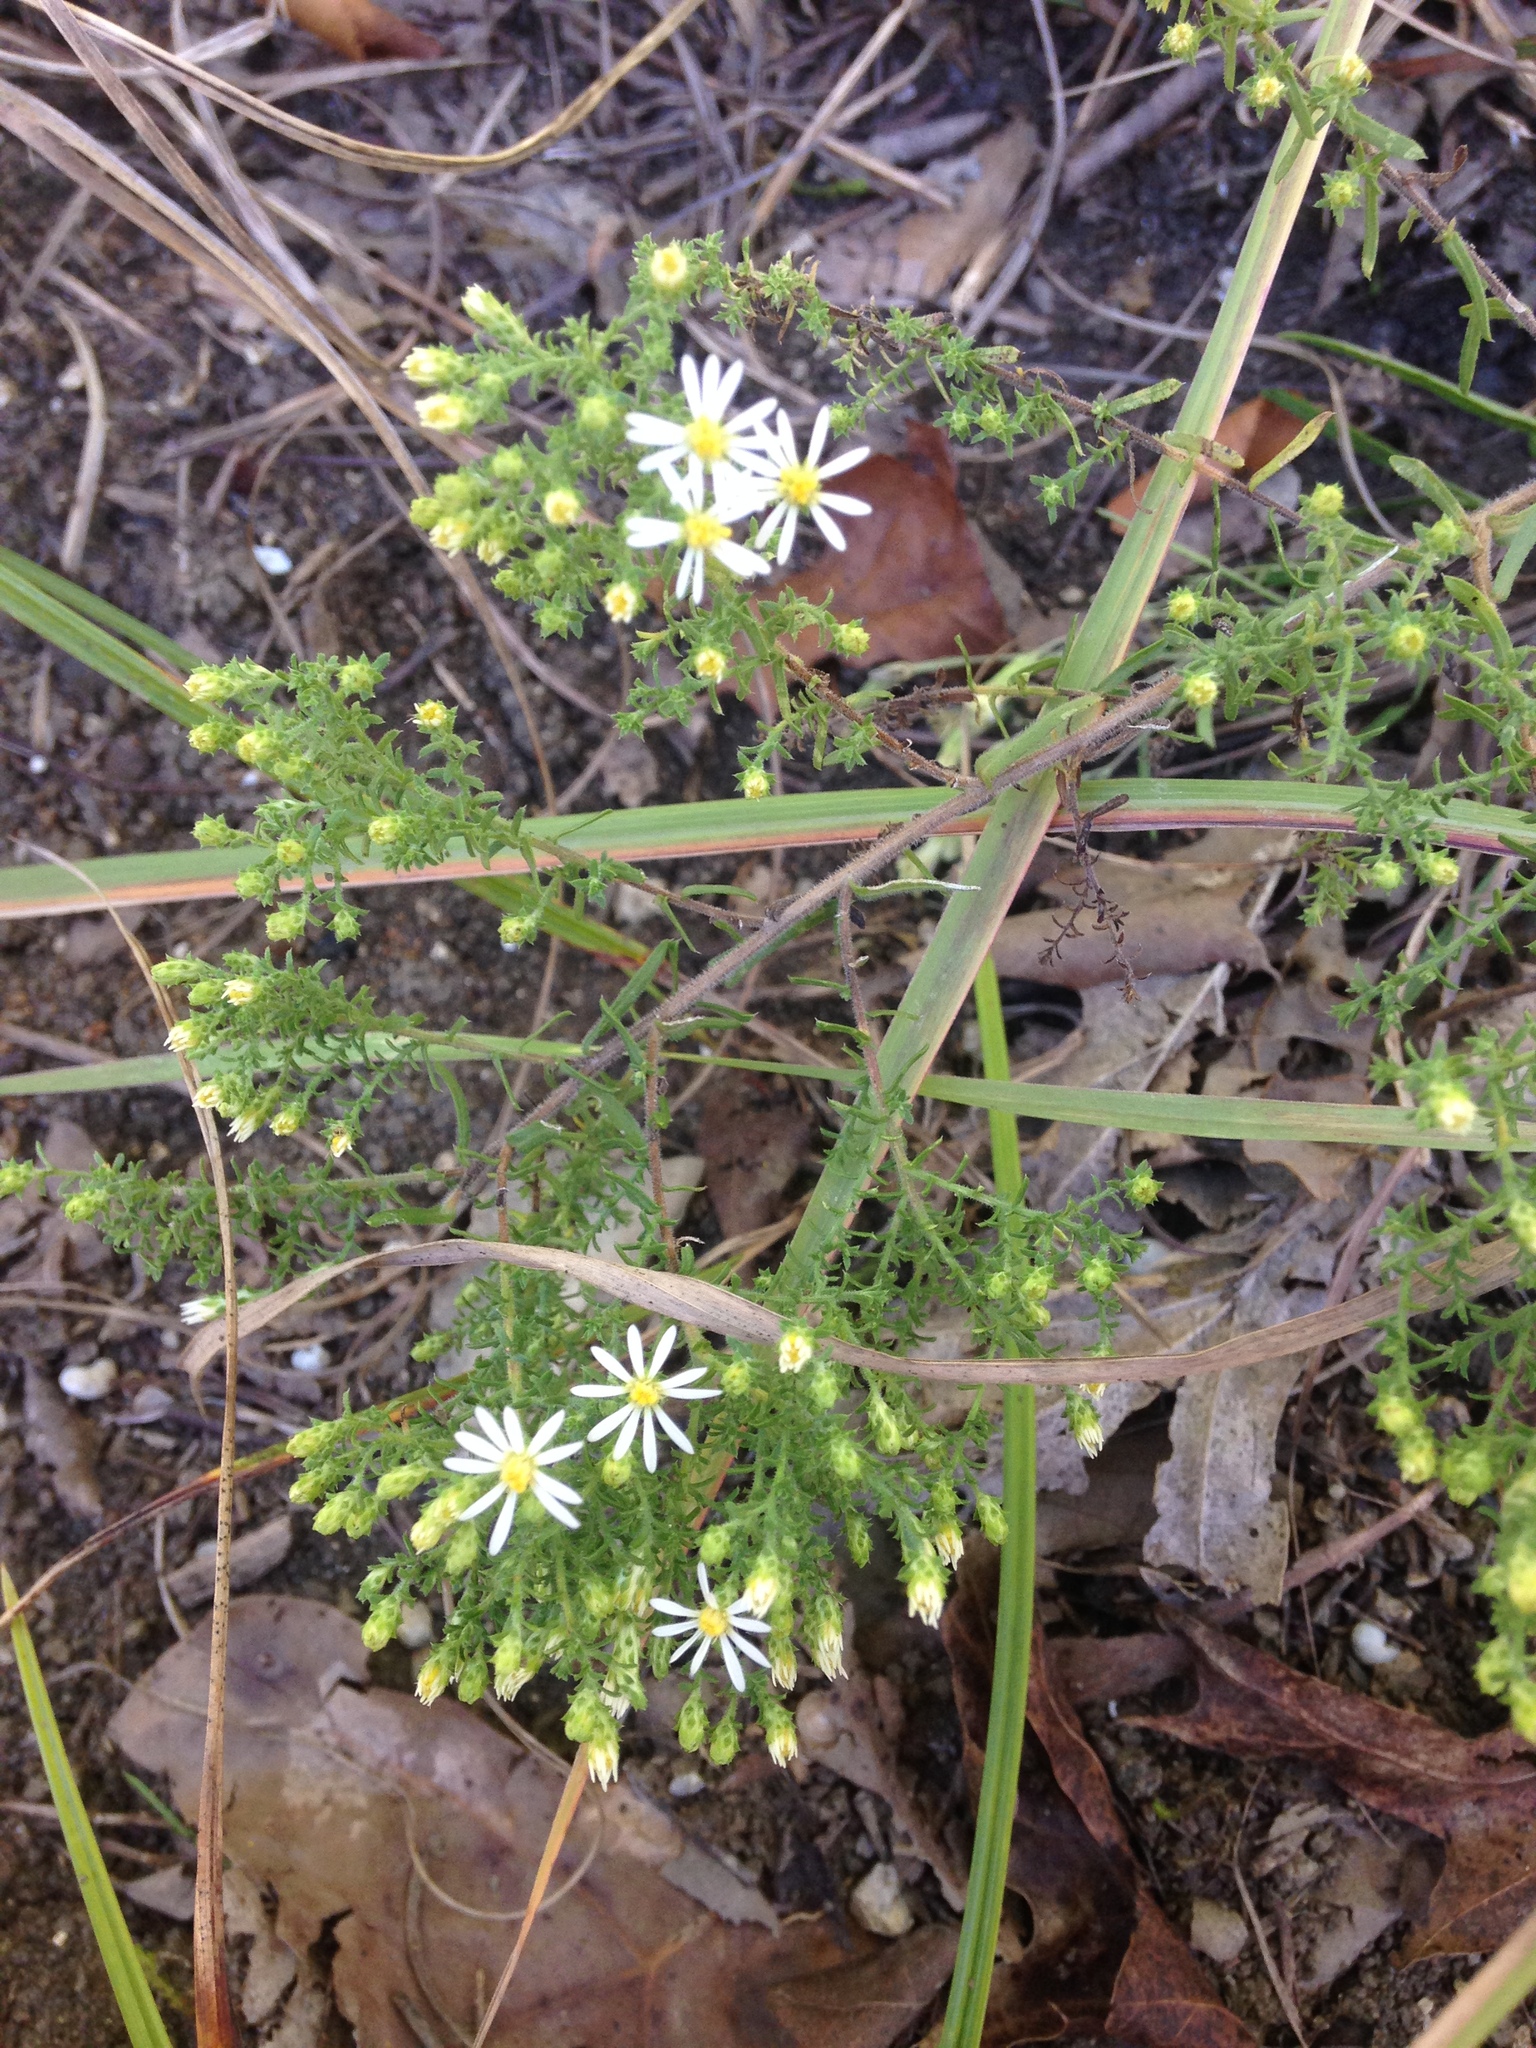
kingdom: Plantae
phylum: Tracheophyta
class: Magnoliopsida
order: Asterales
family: Asteraceae
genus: Symphyotrichum
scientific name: Symphyotrichum ericoides
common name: Heath aster
